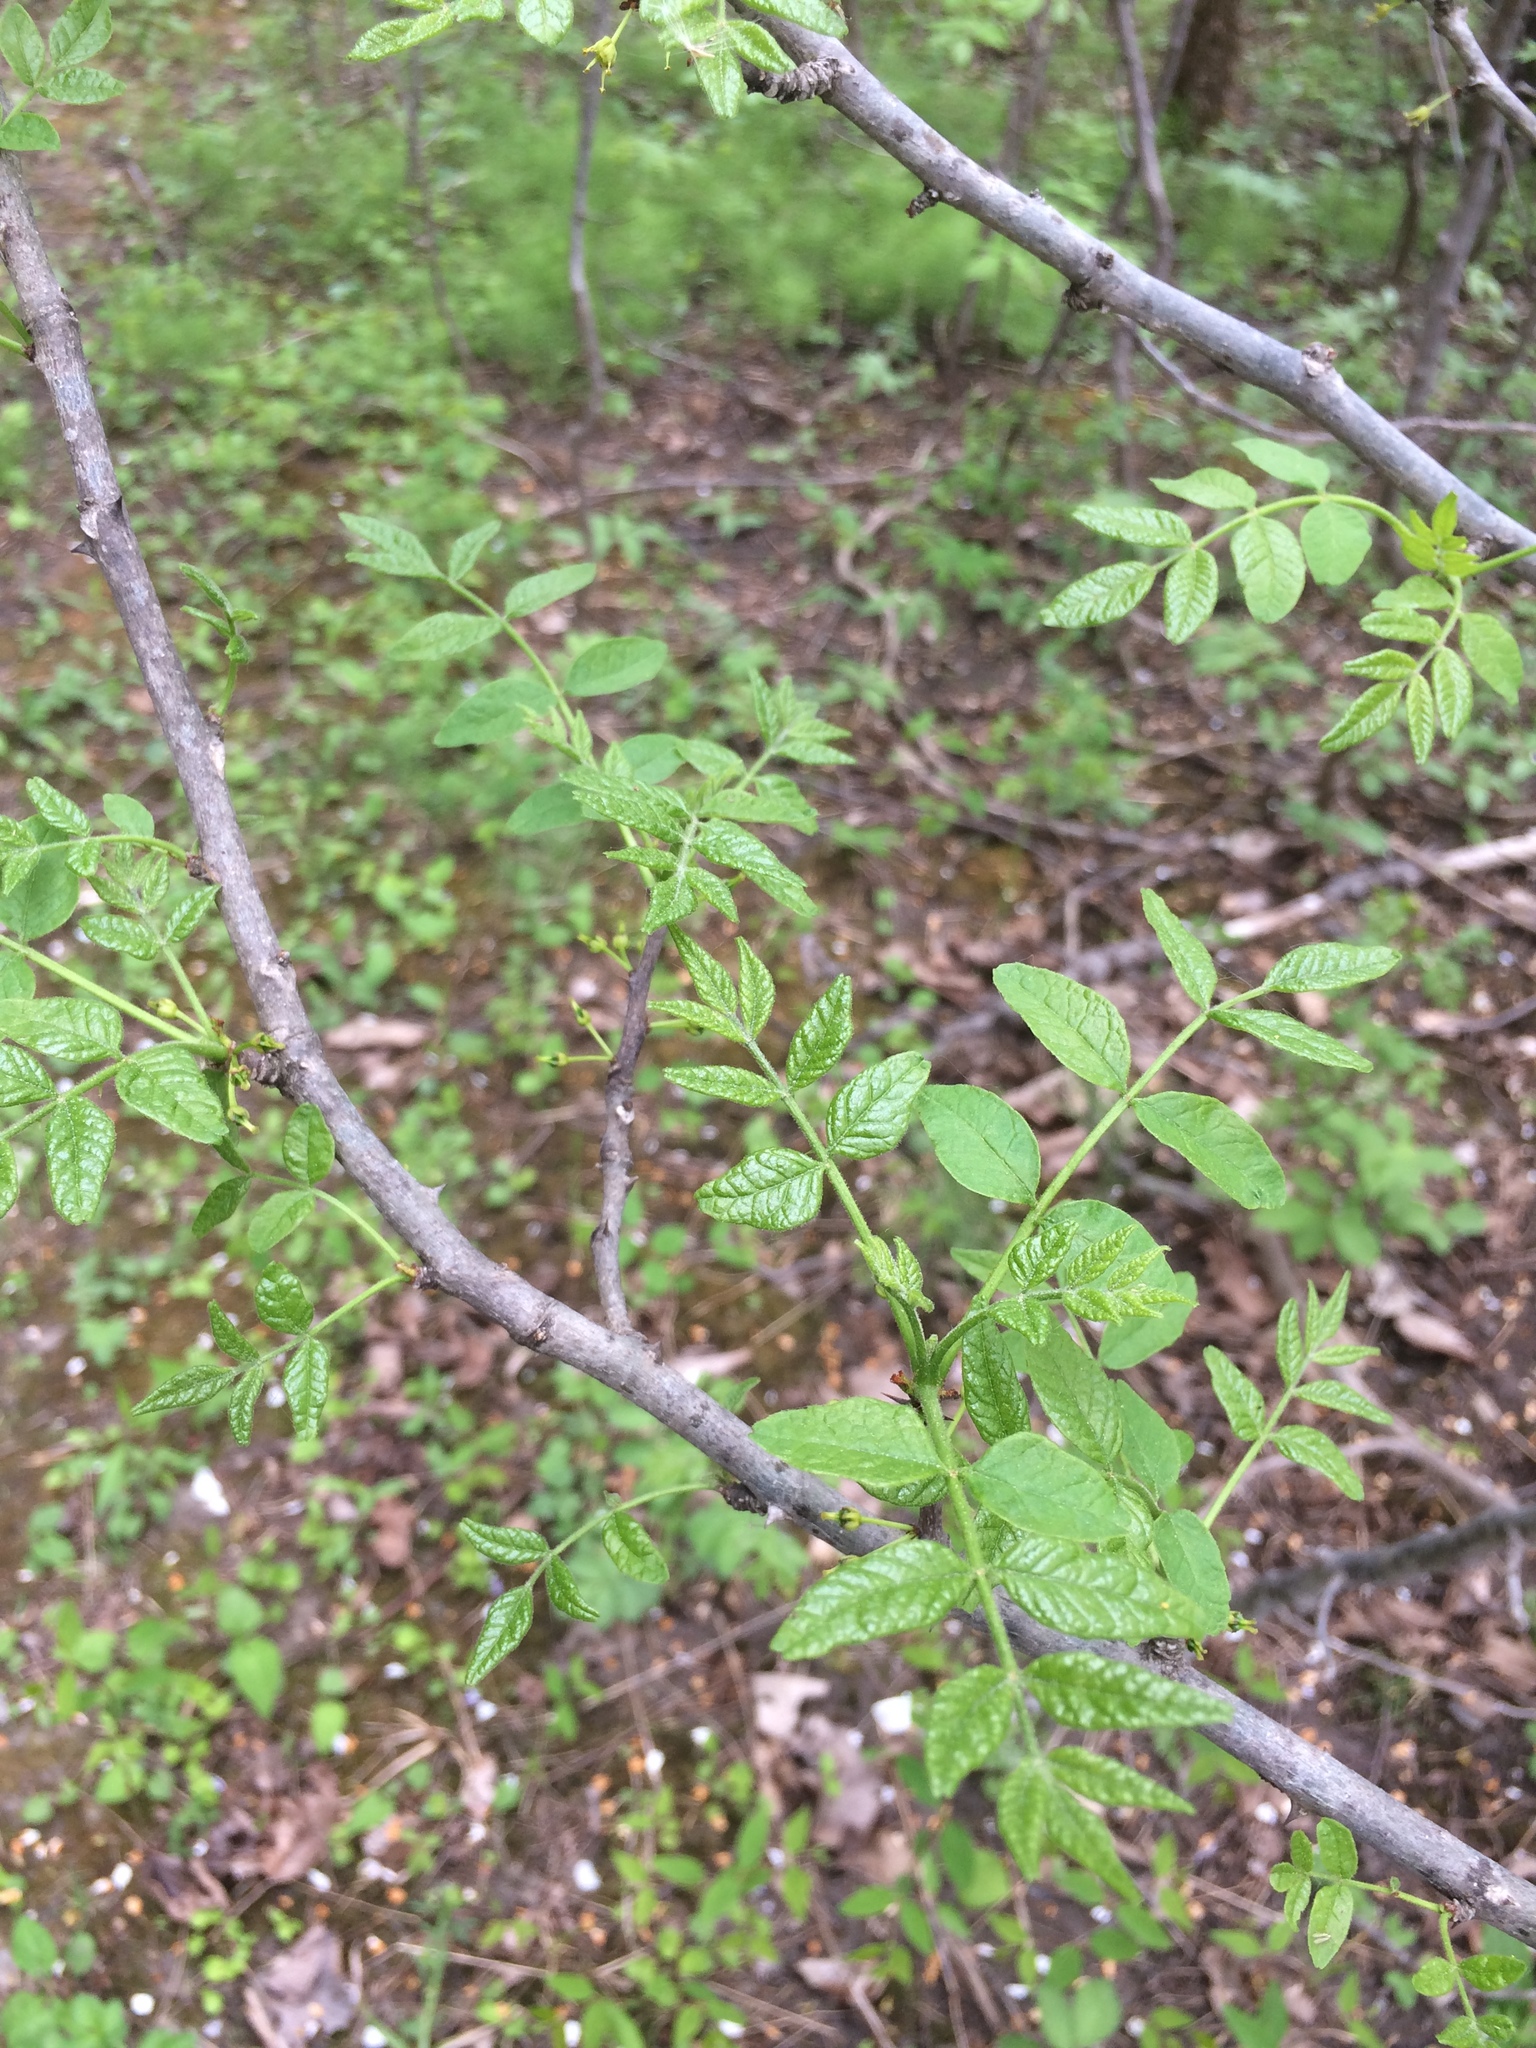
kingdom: Plantae
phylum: Tracheophyta
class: Magnoliopsida
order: Sapindales
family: Rutaceae
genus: Zanthoxylum
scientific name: Zanthoxylum americanum
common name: Northern prickly-ash
